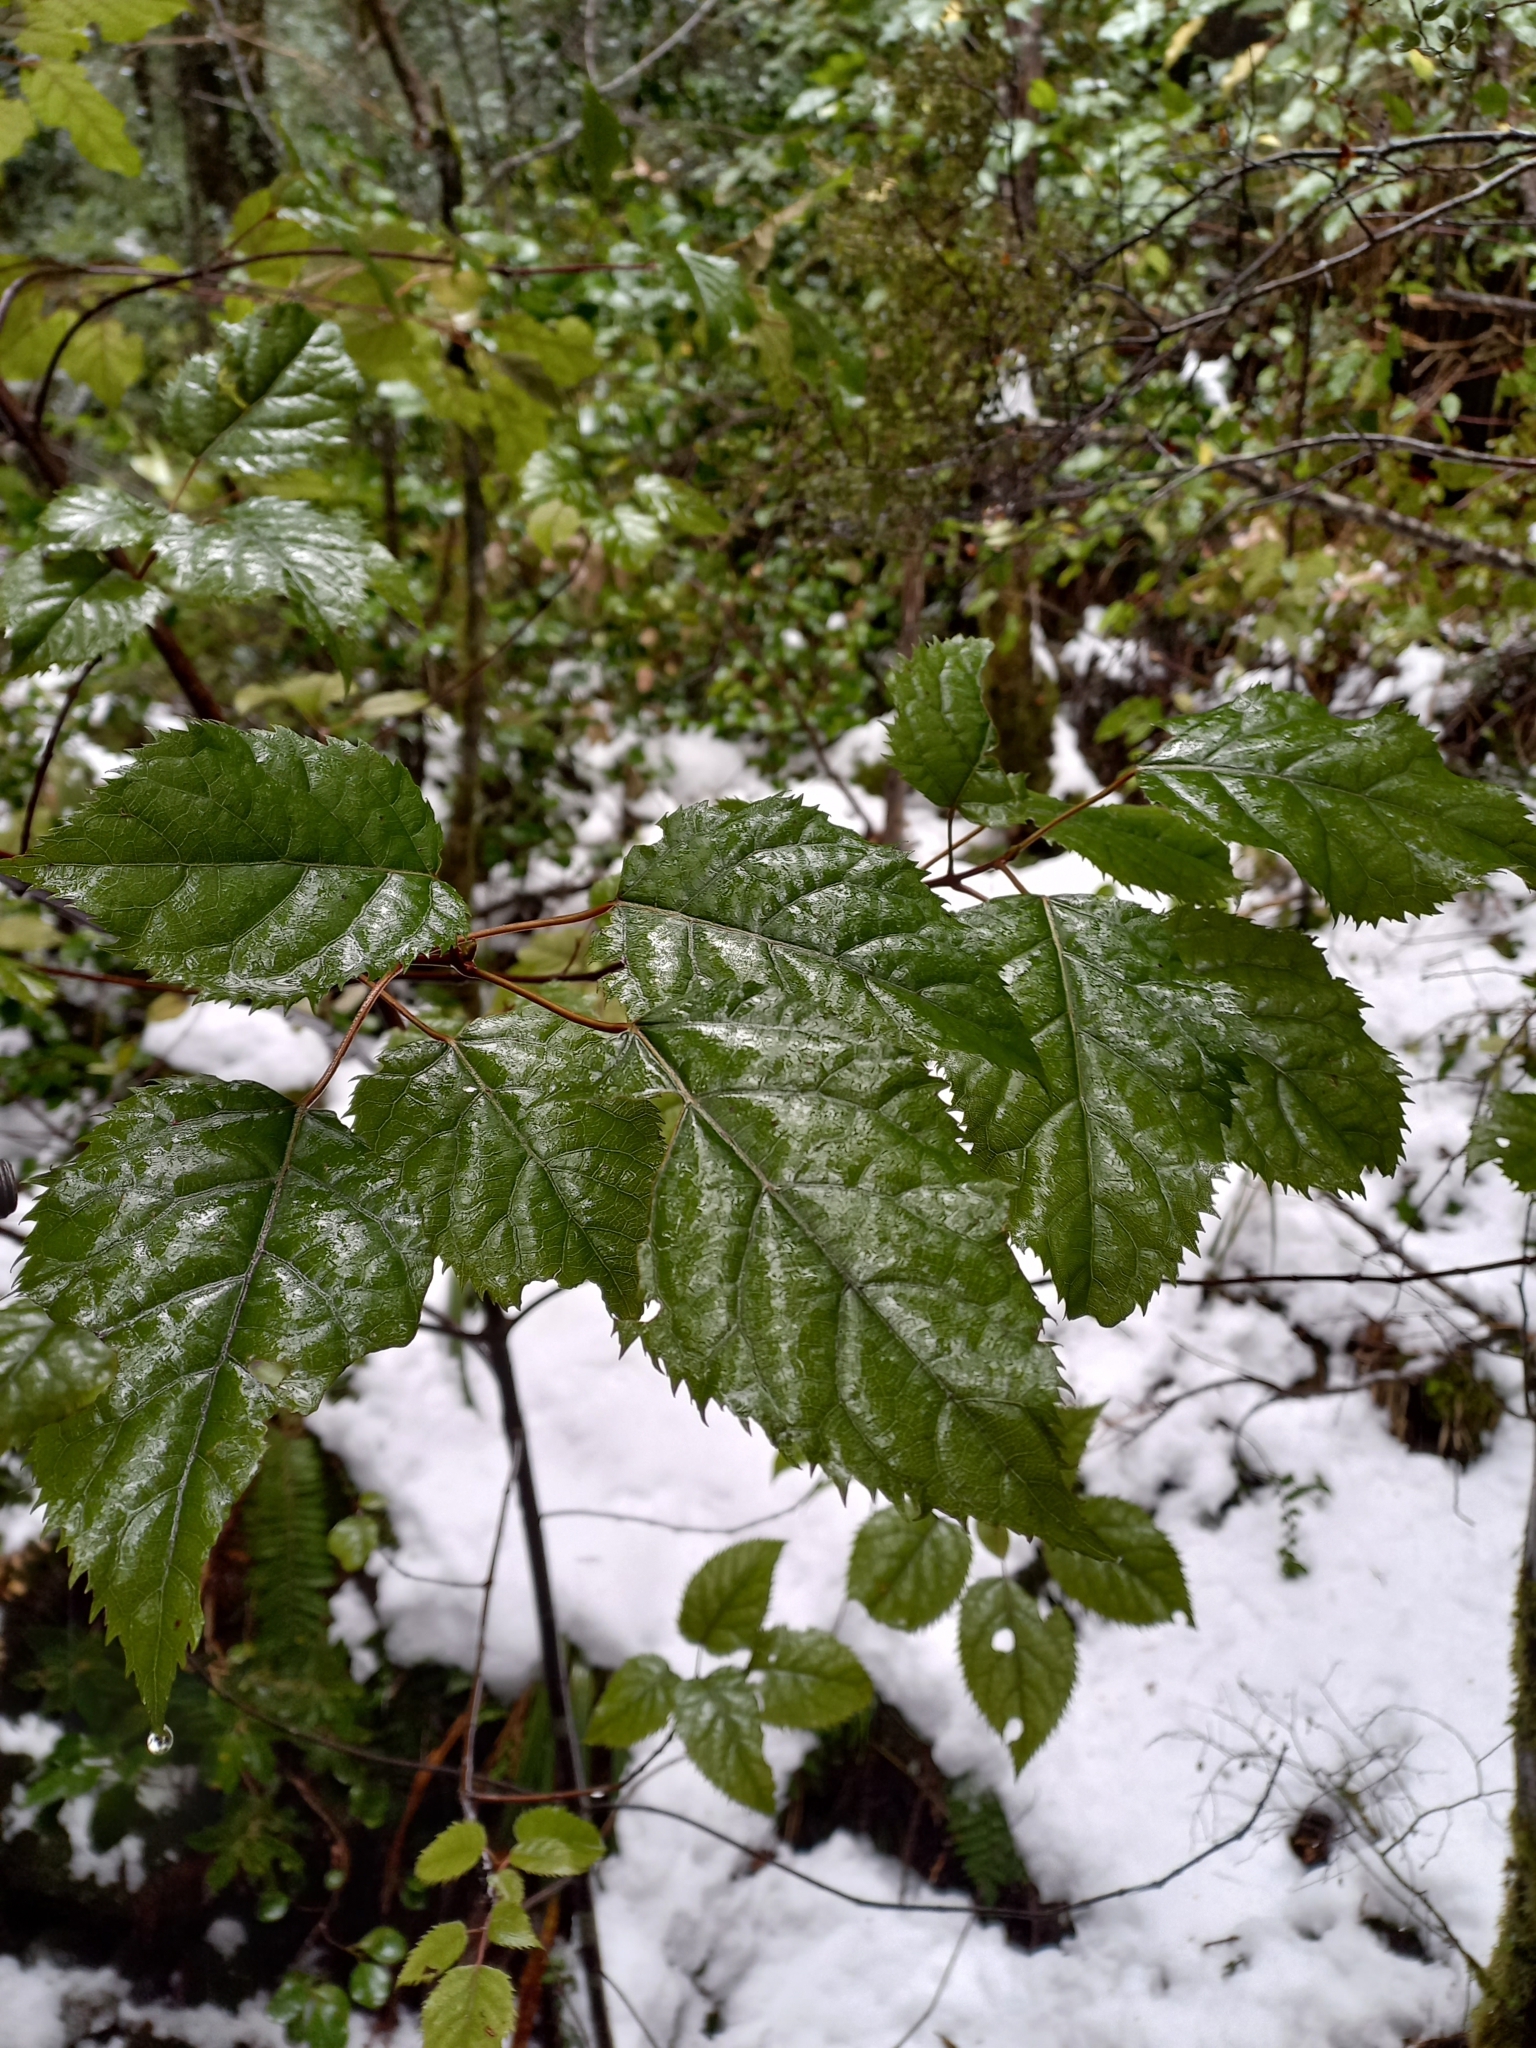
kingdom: Plantae
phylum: Tracheophyta
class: Magnoliopsida
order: Oxalidales
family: Elaeocarpaceae
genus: Aristotelia
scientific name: Aristotelia serrata
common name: New zealand wineberry
